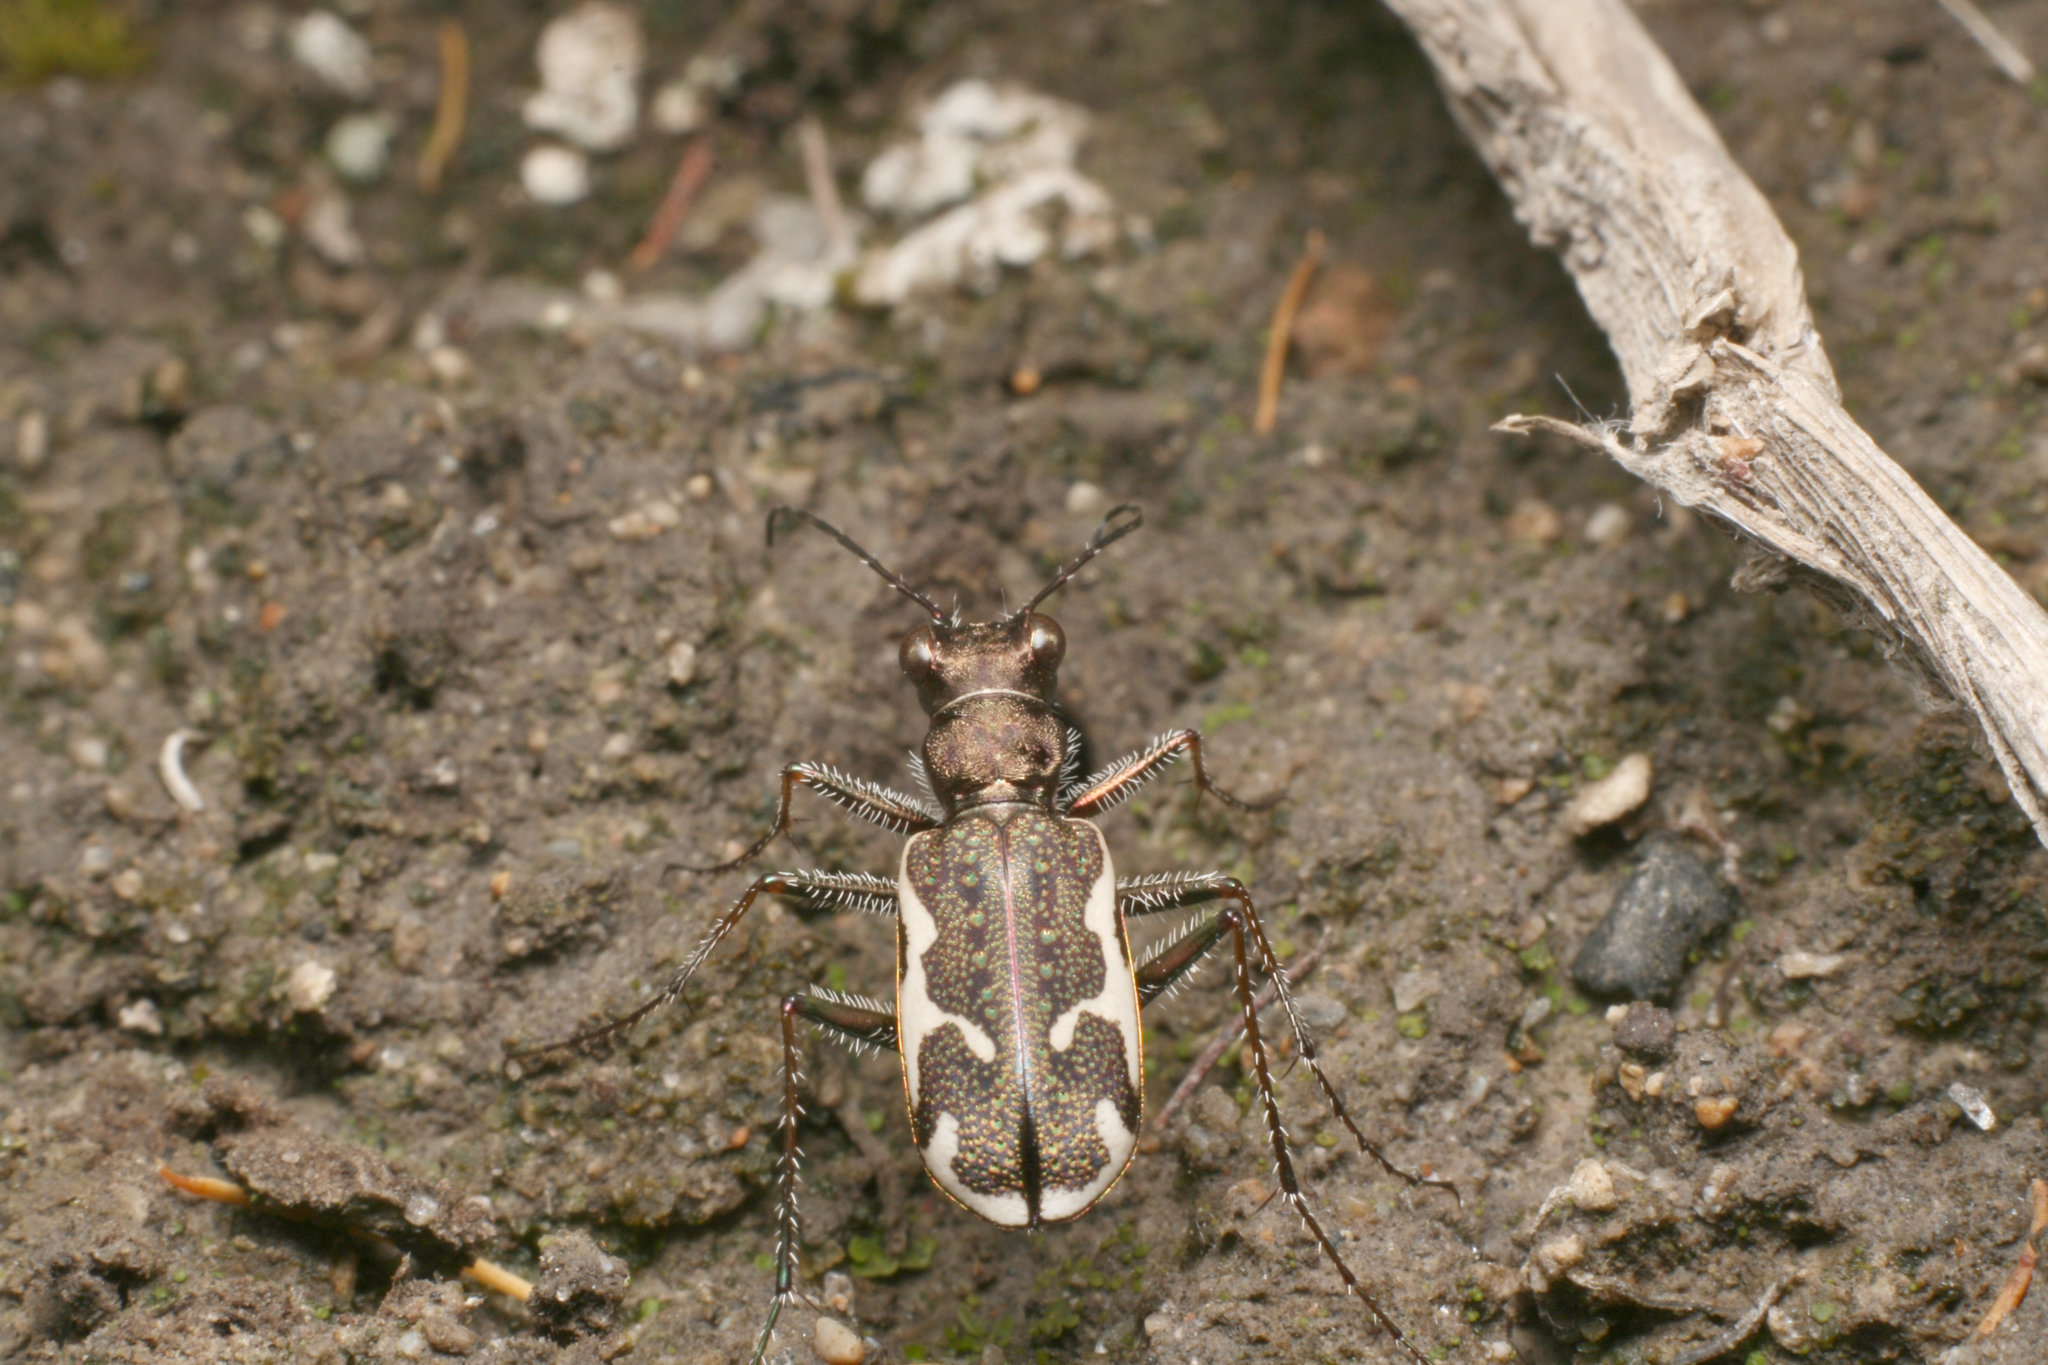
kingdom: Animalia
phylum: Arthropoda
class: Insecta
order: Coleoptera
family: Carabidae
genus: Neocicindela
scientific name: Neocicindela tuberculata
